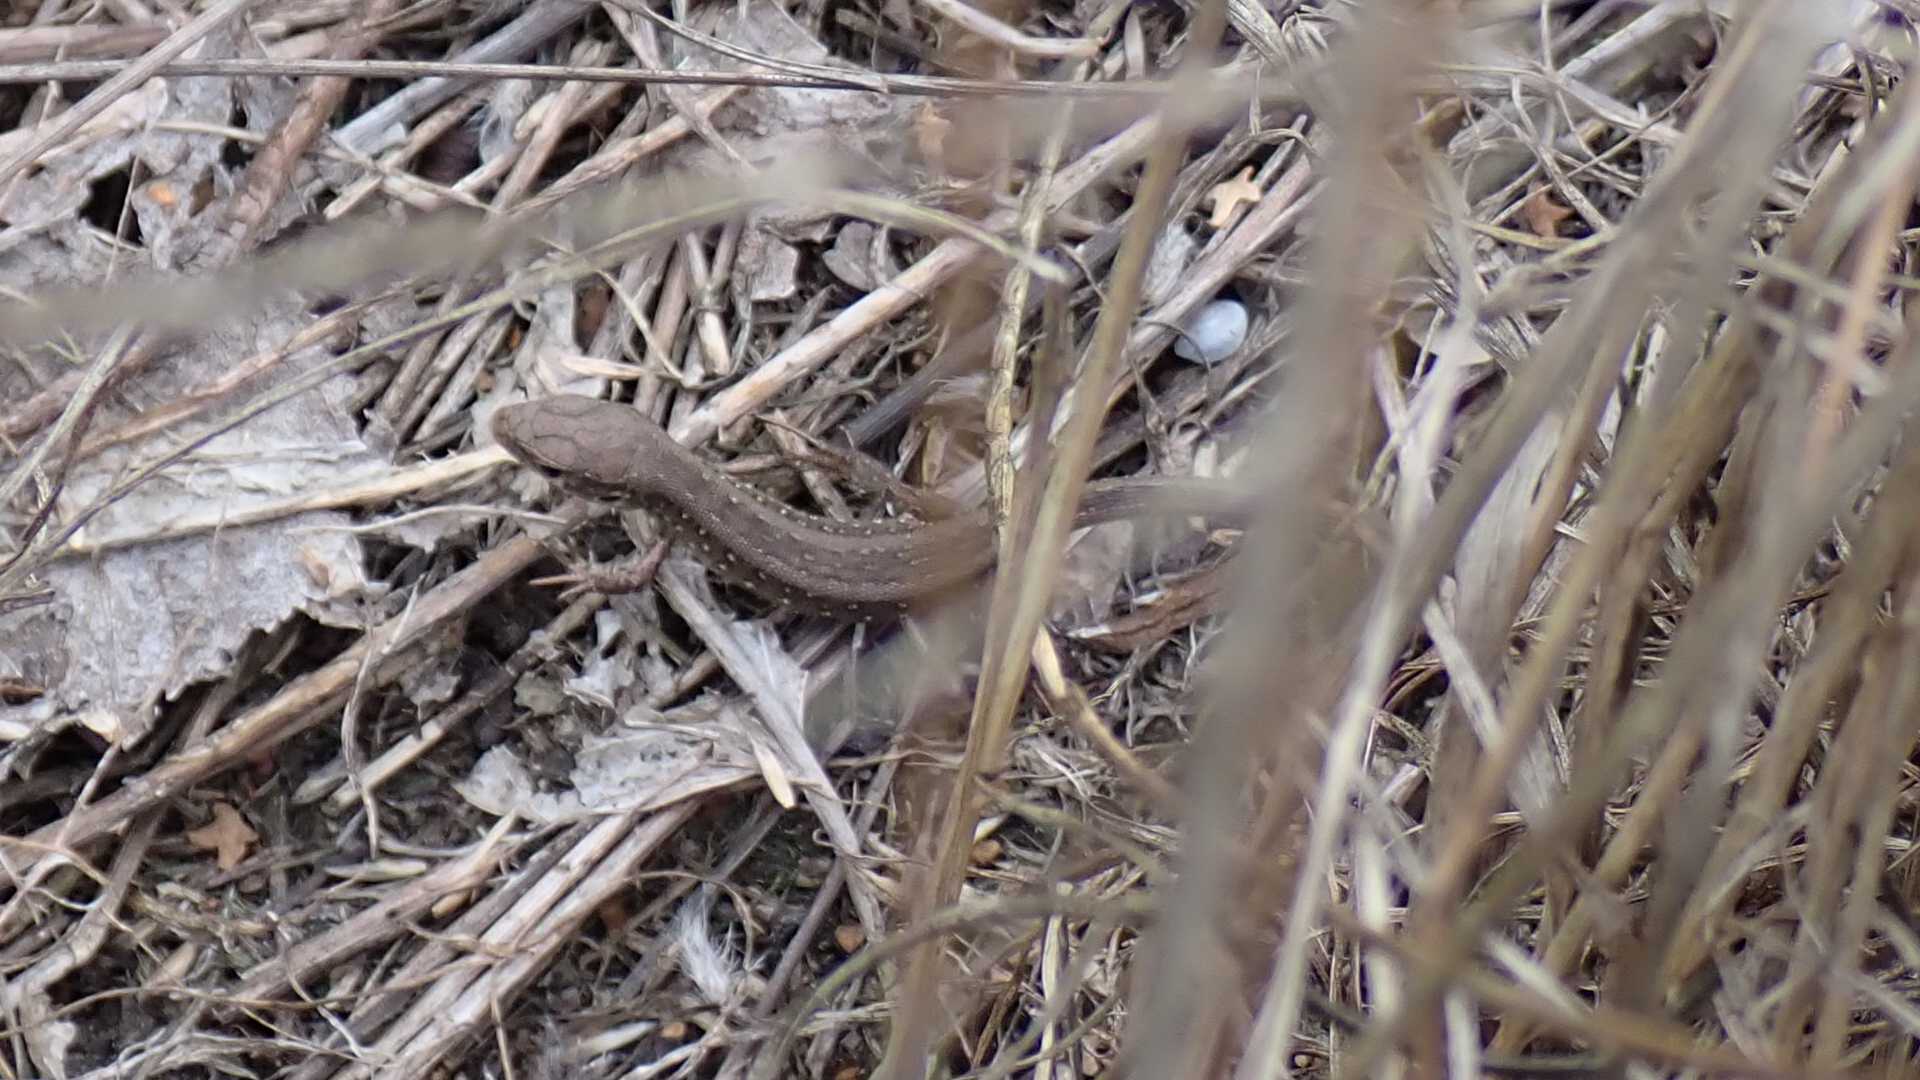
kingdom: Animalia
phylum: Chordata
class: Squamata
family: Lacertidae
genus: Lacerta
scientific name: Lacerta agilis
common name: Sand lizard
